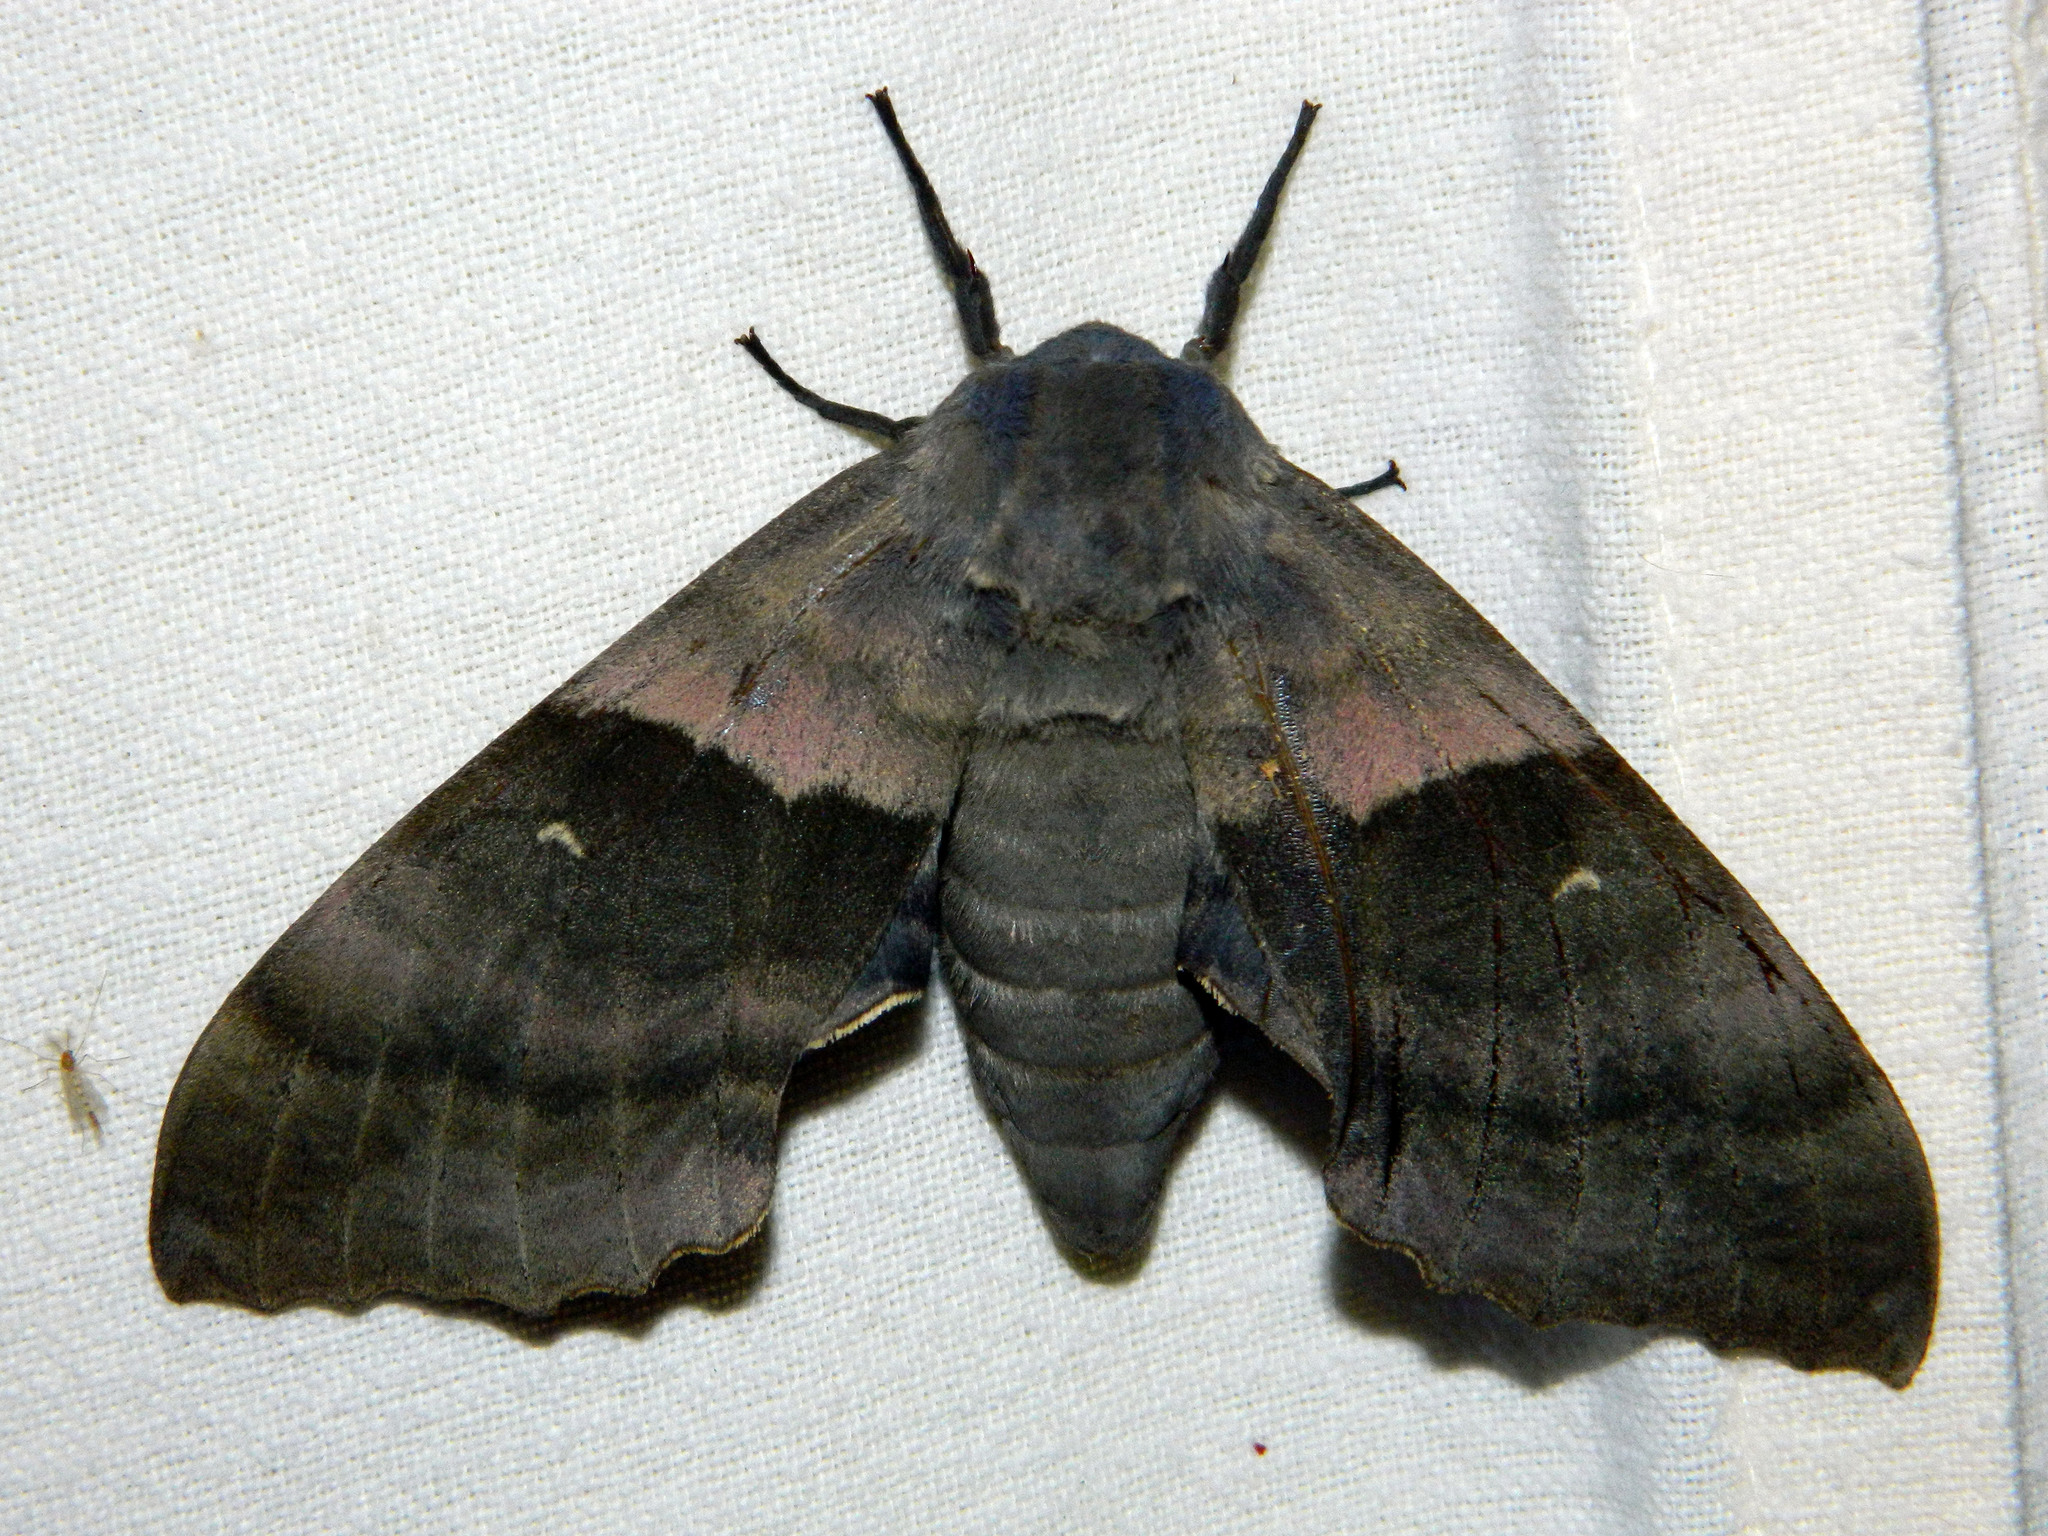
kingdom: Animalia
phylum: Arthropoda
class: Insecta
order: Lepidoptera
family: Sphingidae
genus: Pachysphinx
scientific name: Pachysphinx modesta
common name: Big poplar sphinx
